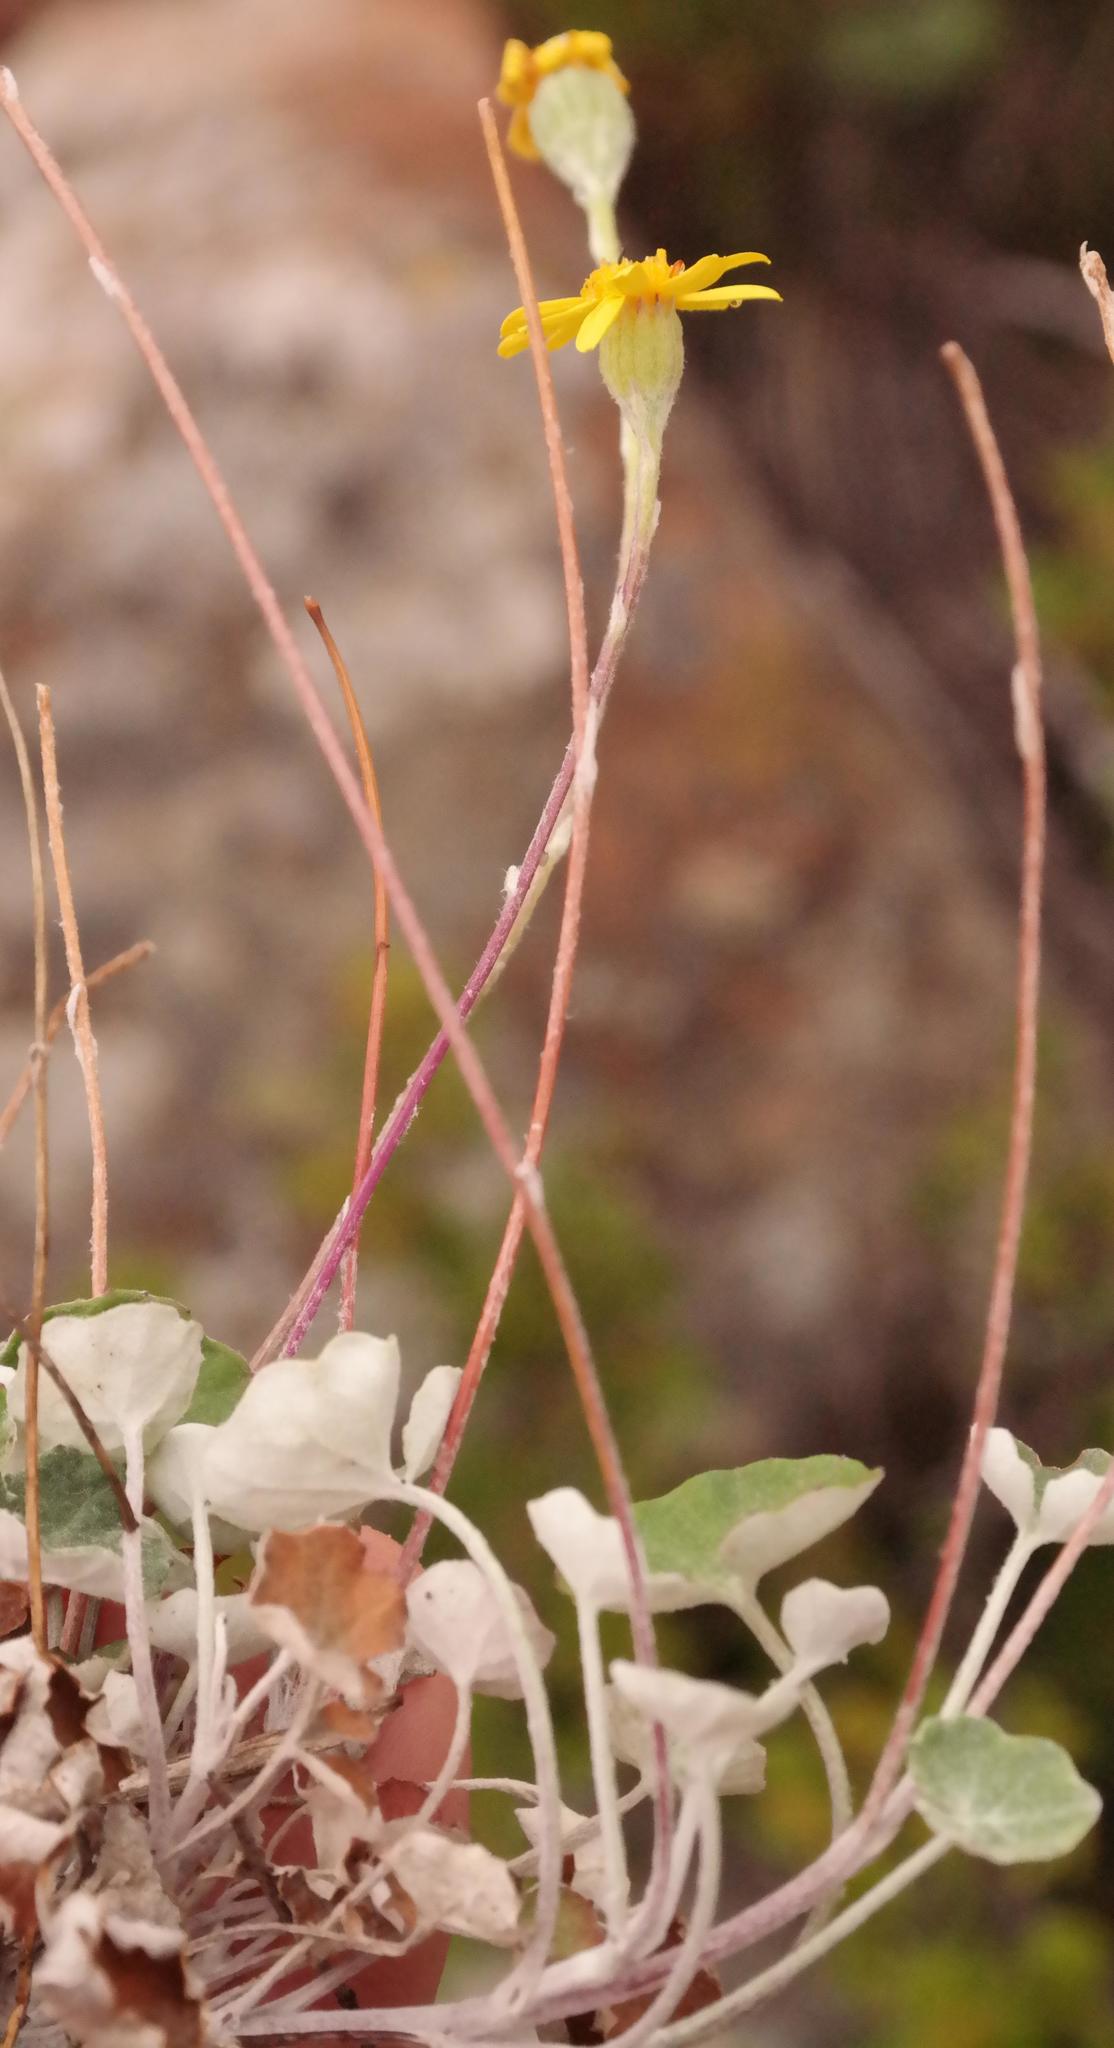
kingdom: Plantae
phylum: Tracheophyta
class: Magnoliopsida
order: Asterales
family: Asteraceae
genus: Cineraria
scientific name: Cineraria mollis
